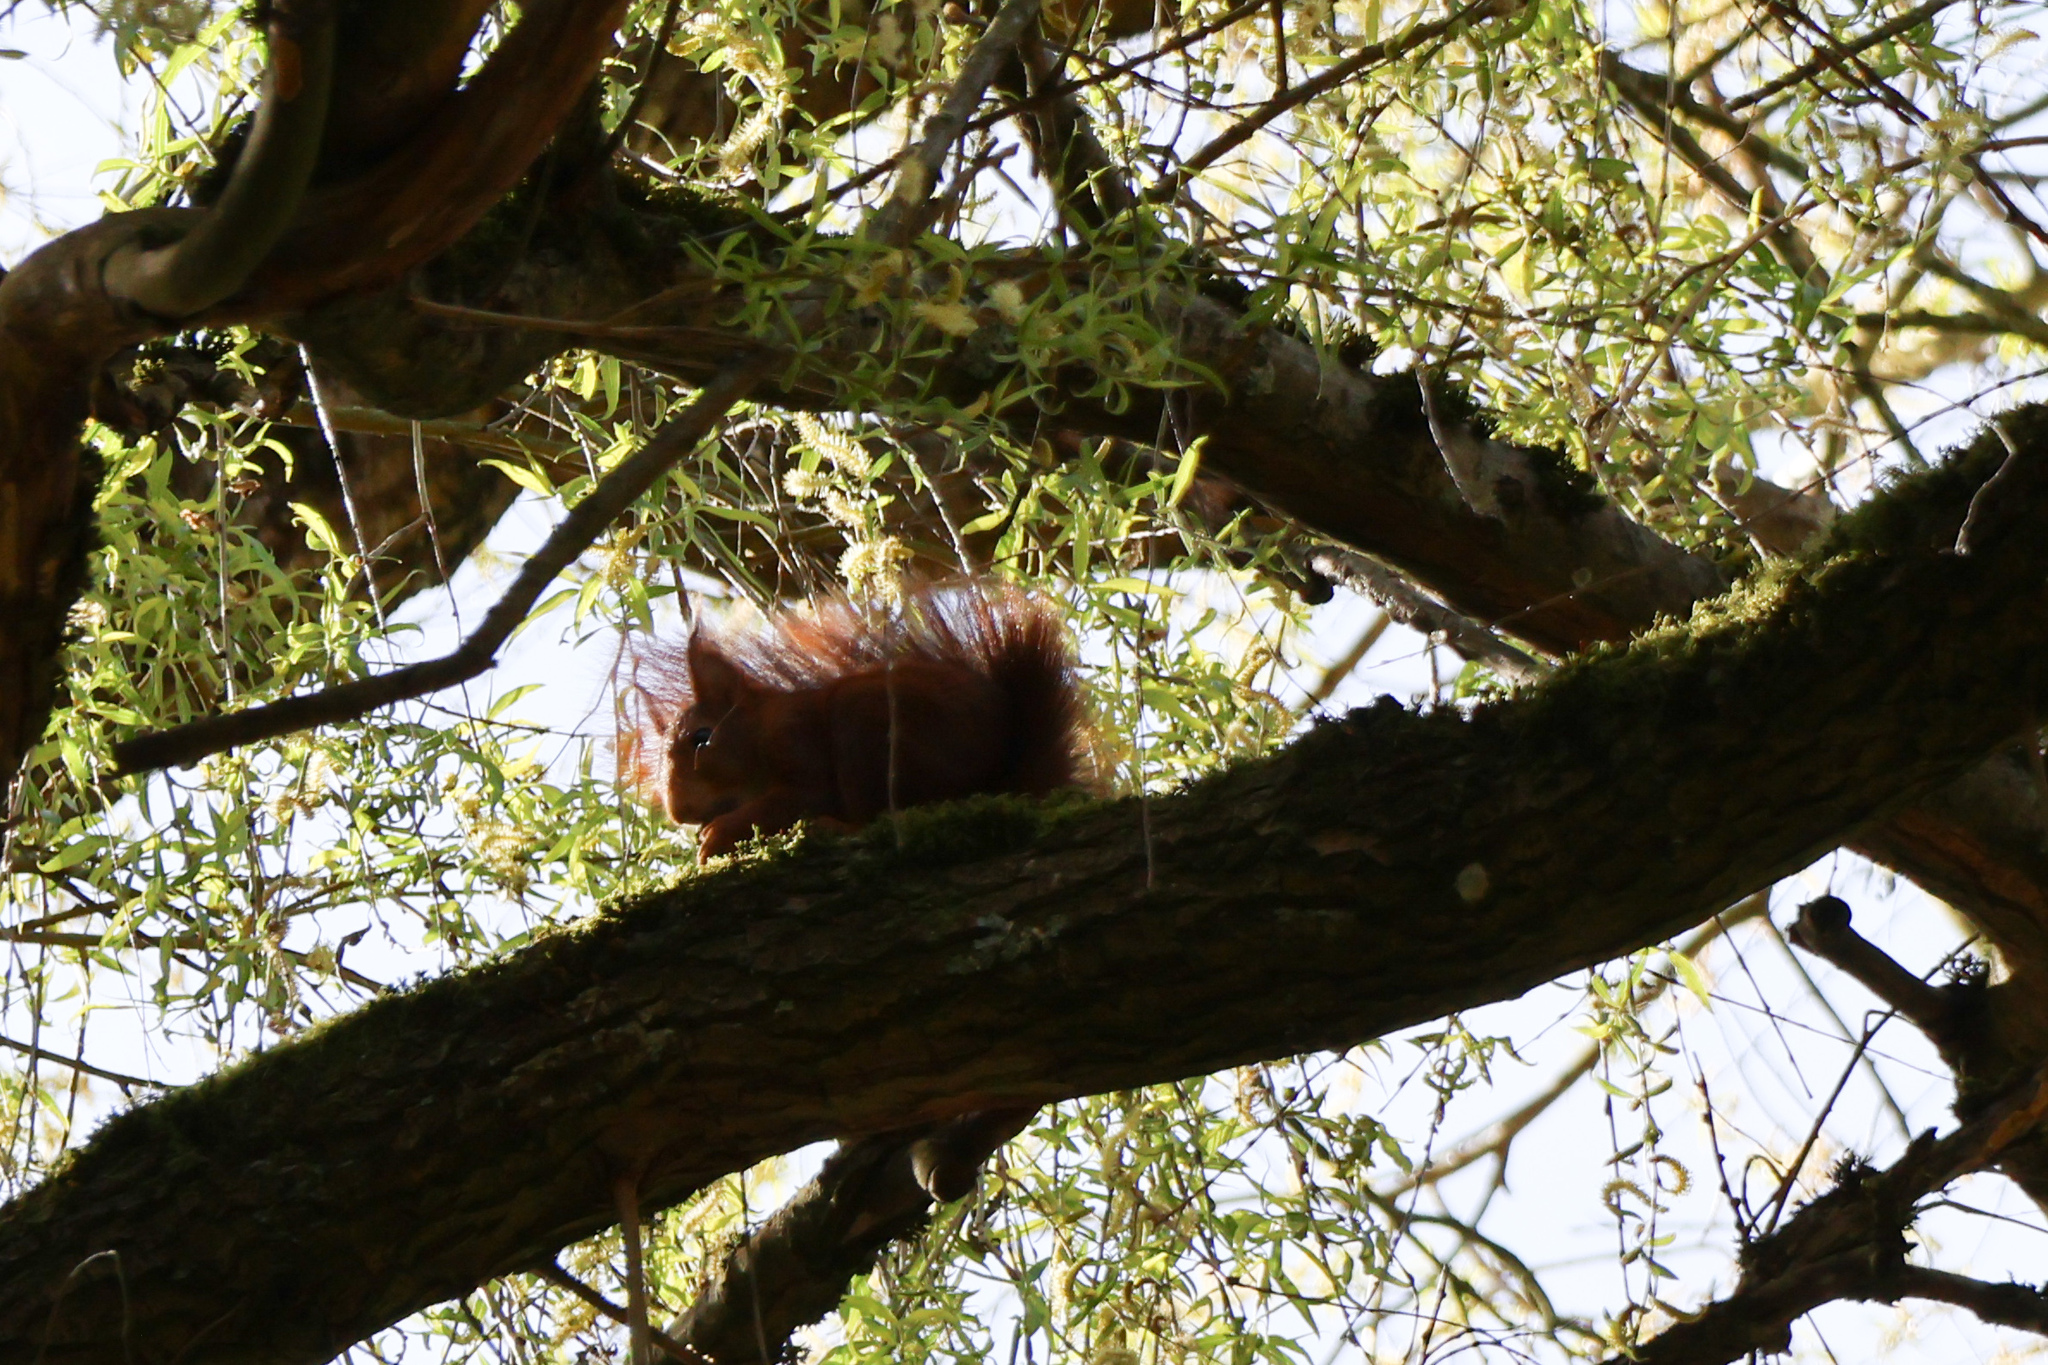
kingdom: Animalia
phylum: Chordata
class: Mammalia
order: Rodentia
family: Sciuridae
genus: Sciurus
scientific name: Sciurus vulgaris
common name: Eurasian red squirrel
